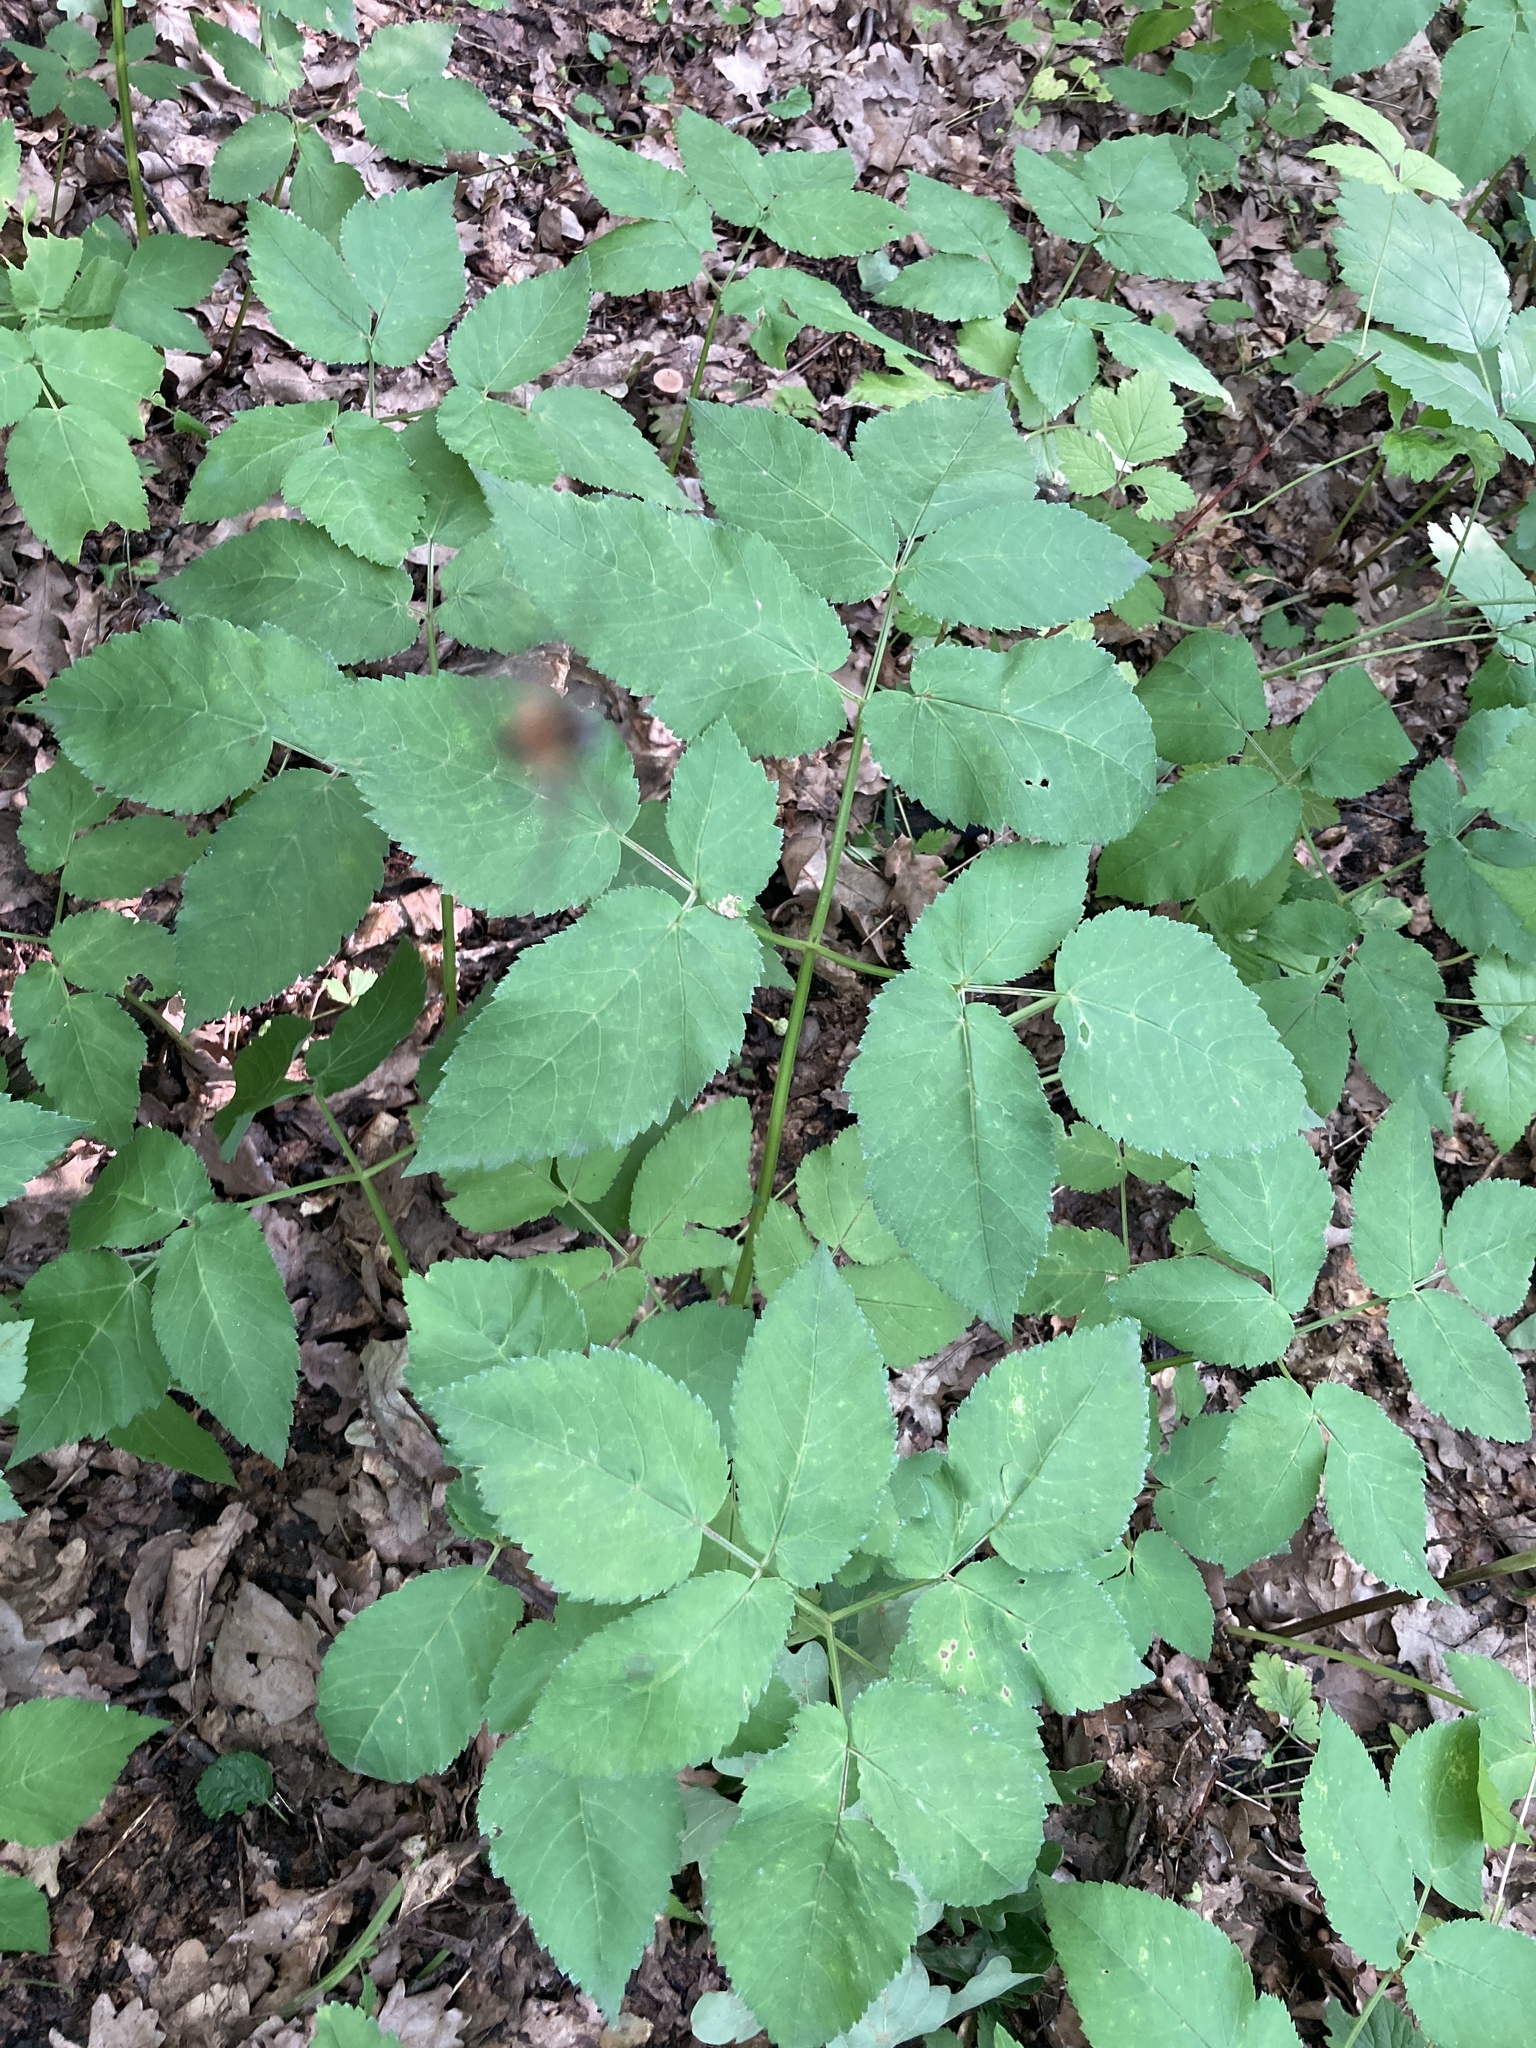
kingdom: Plantae
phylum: Tracheophyta
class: Magnoliopsida
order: Apiales
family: Apiaceae
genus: Aegopodium
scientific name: Aegopodium podagraria
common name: Ground-elder
